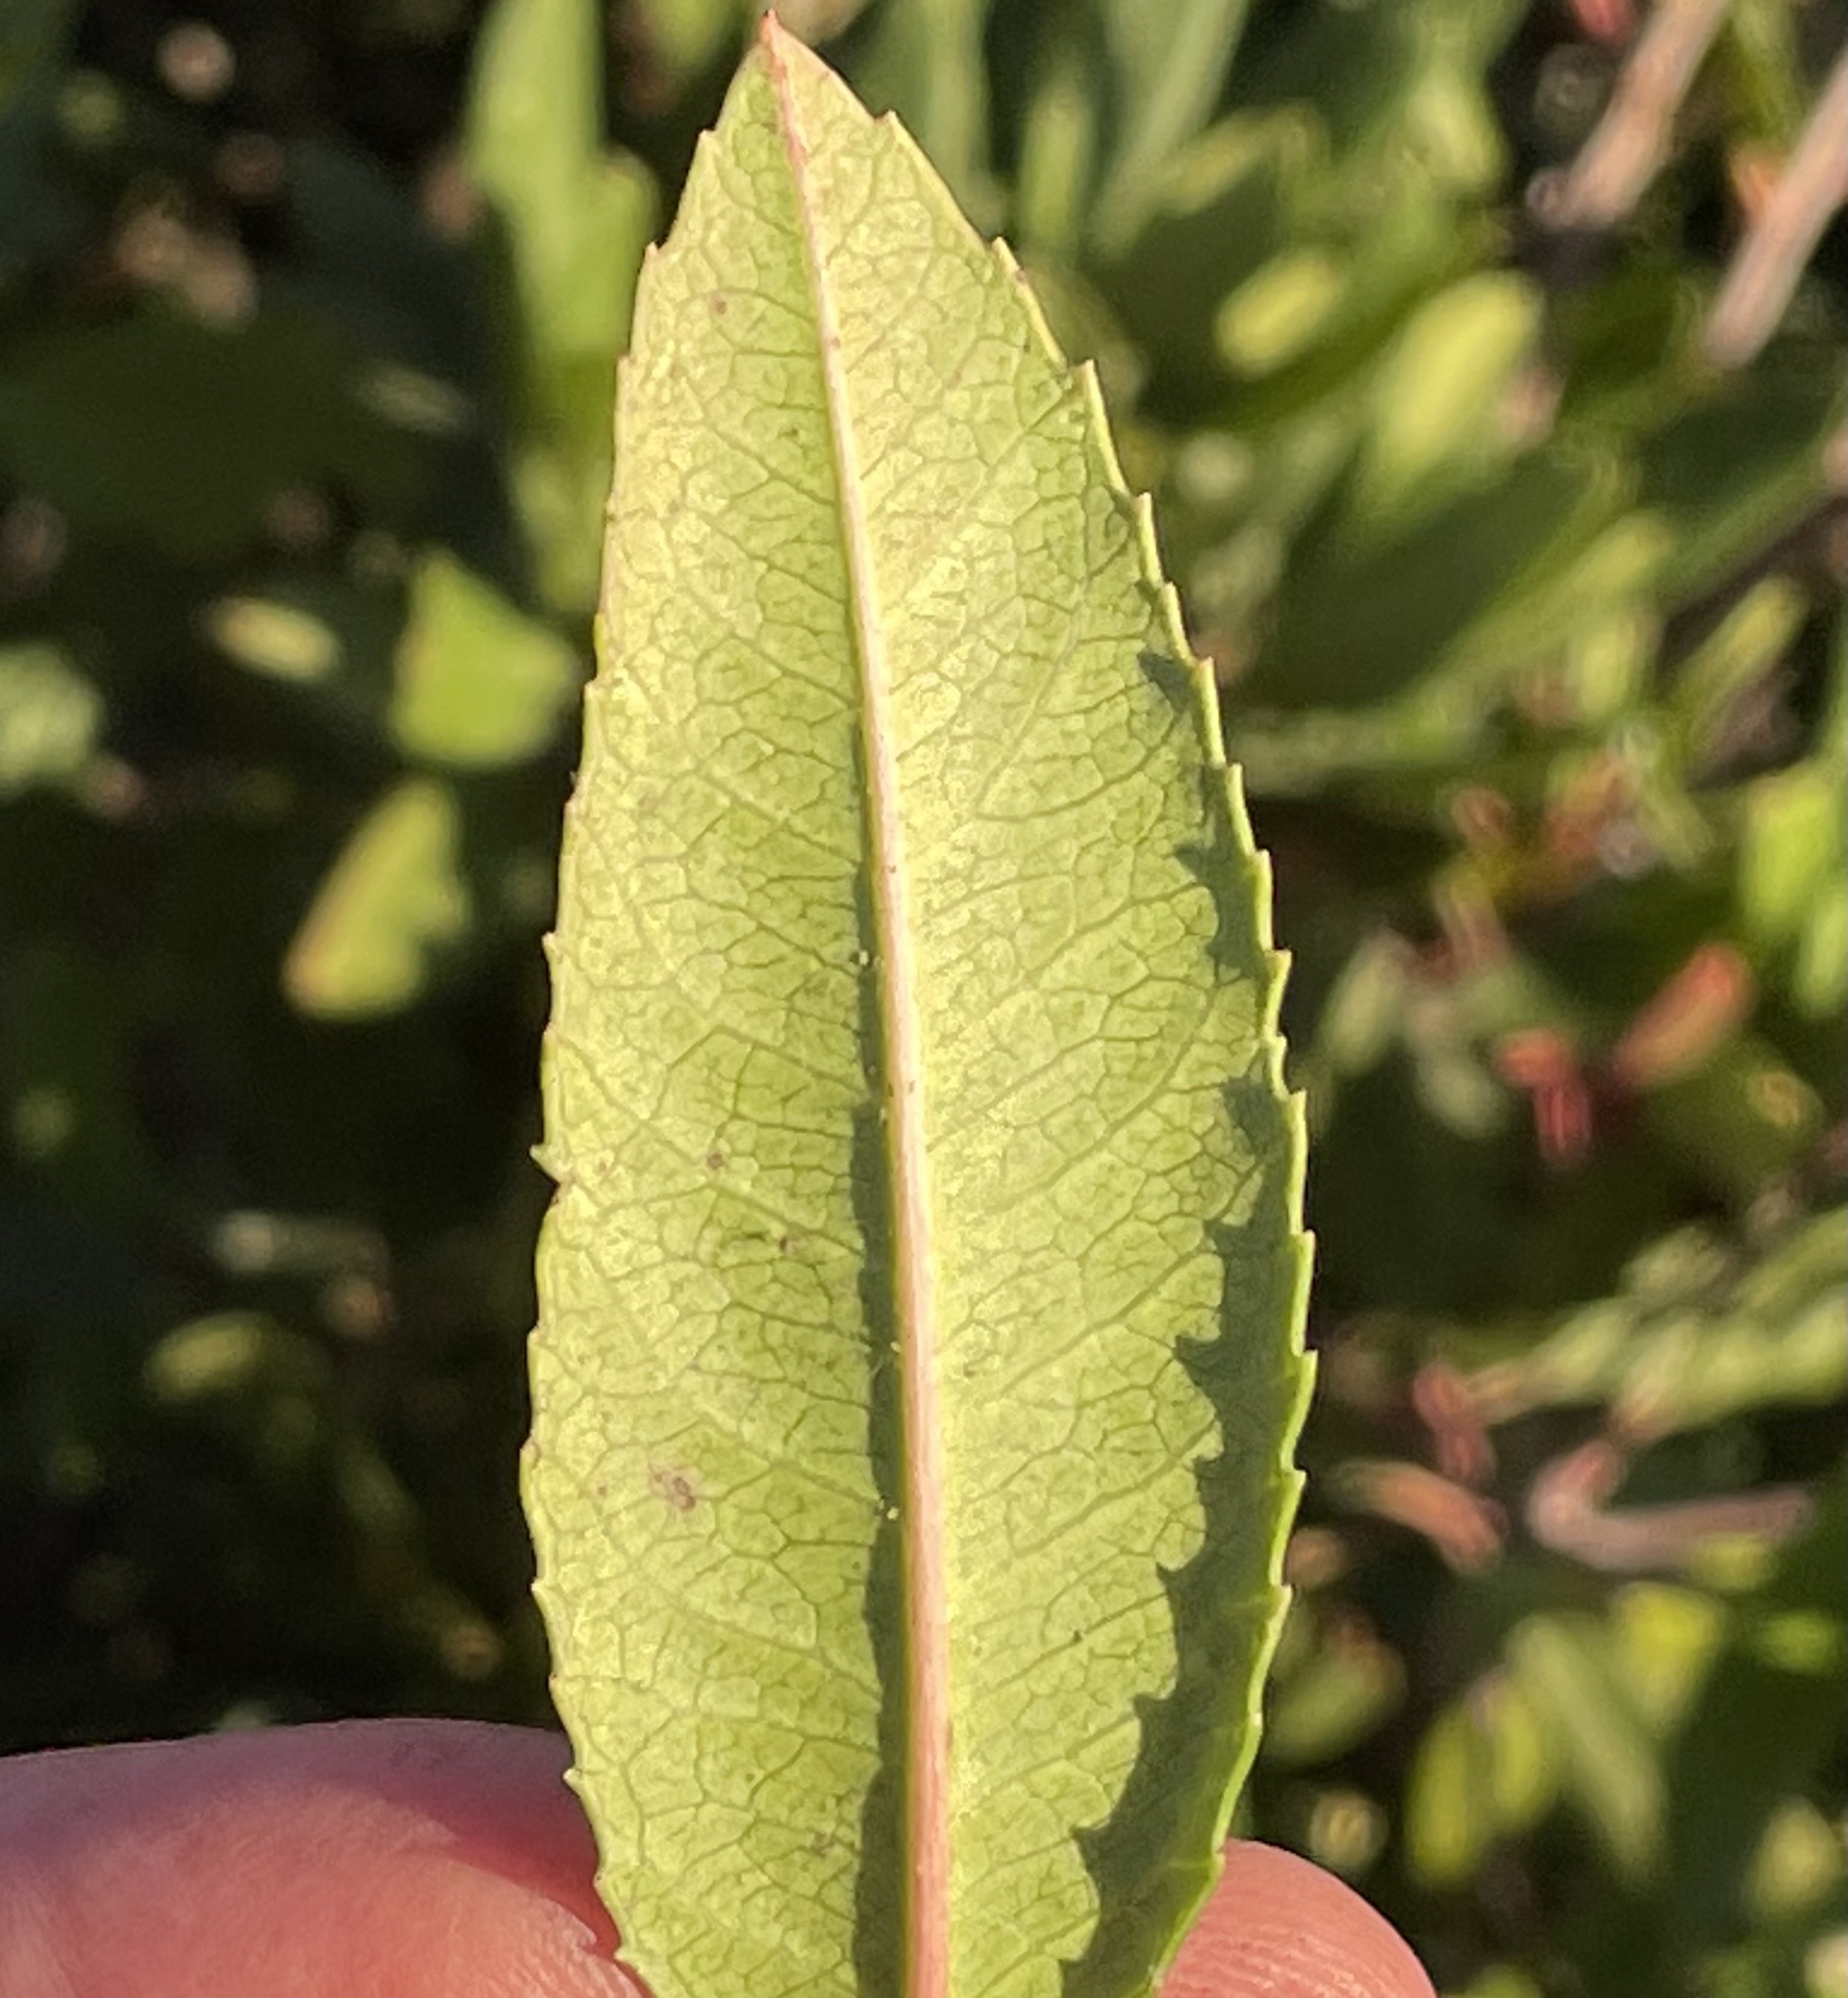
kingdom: Plantae
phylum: Tracheophyta
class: Magnoliopsida
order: Rosales
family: Rosaceae
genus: Heteromeles
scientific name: Heteromeles arbutifolia
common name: California-holly
